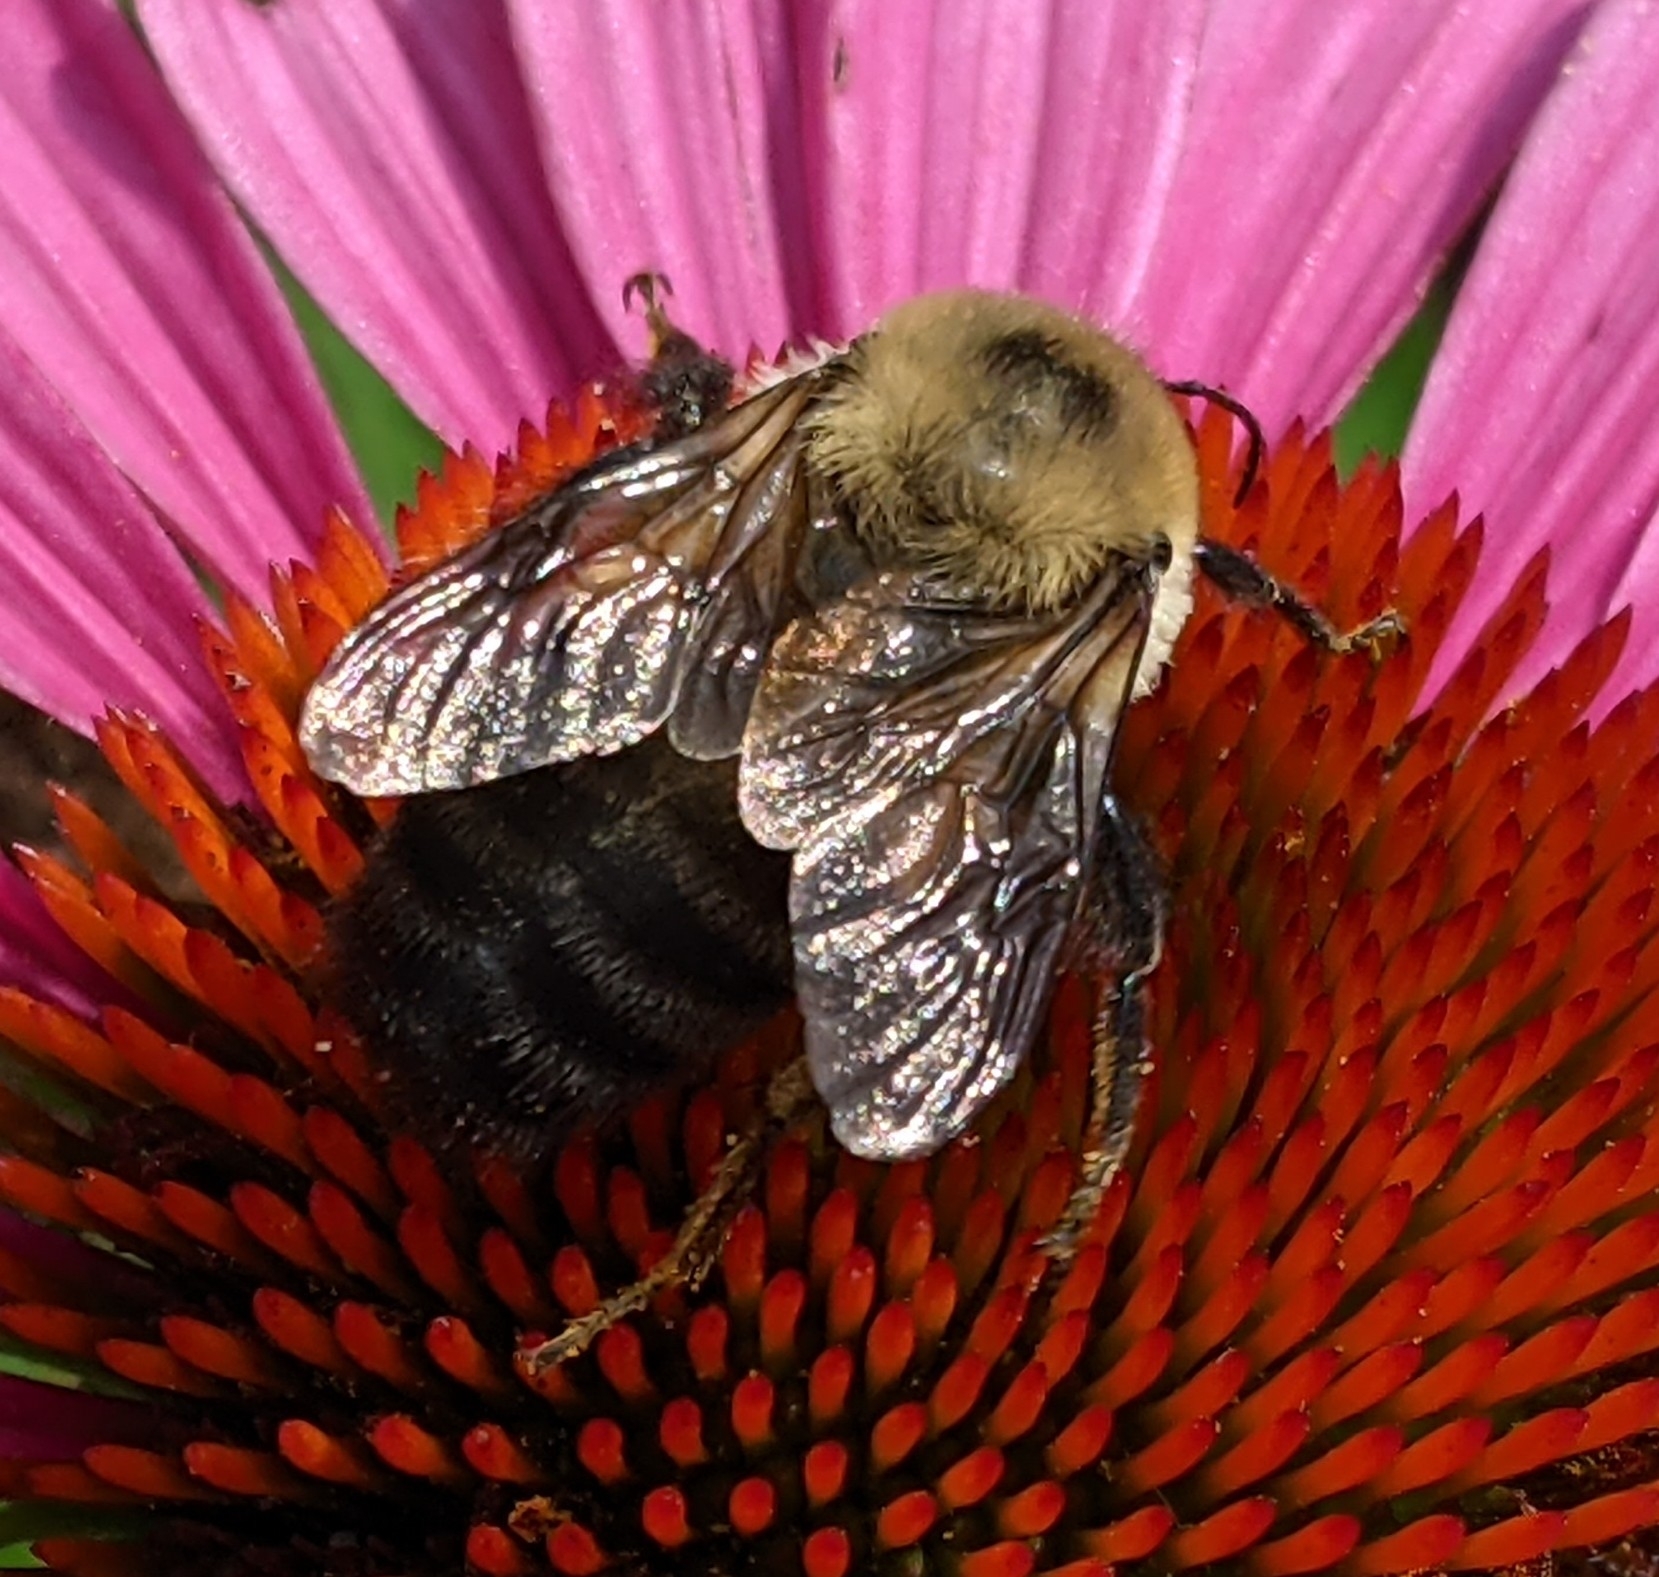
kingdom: Animalia
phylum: Arthropoda
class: Insecta
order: Hymenoptera
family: Apidae
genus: Bombus
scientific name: Bombus griseocollis
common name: Brown-belted bumble bee
